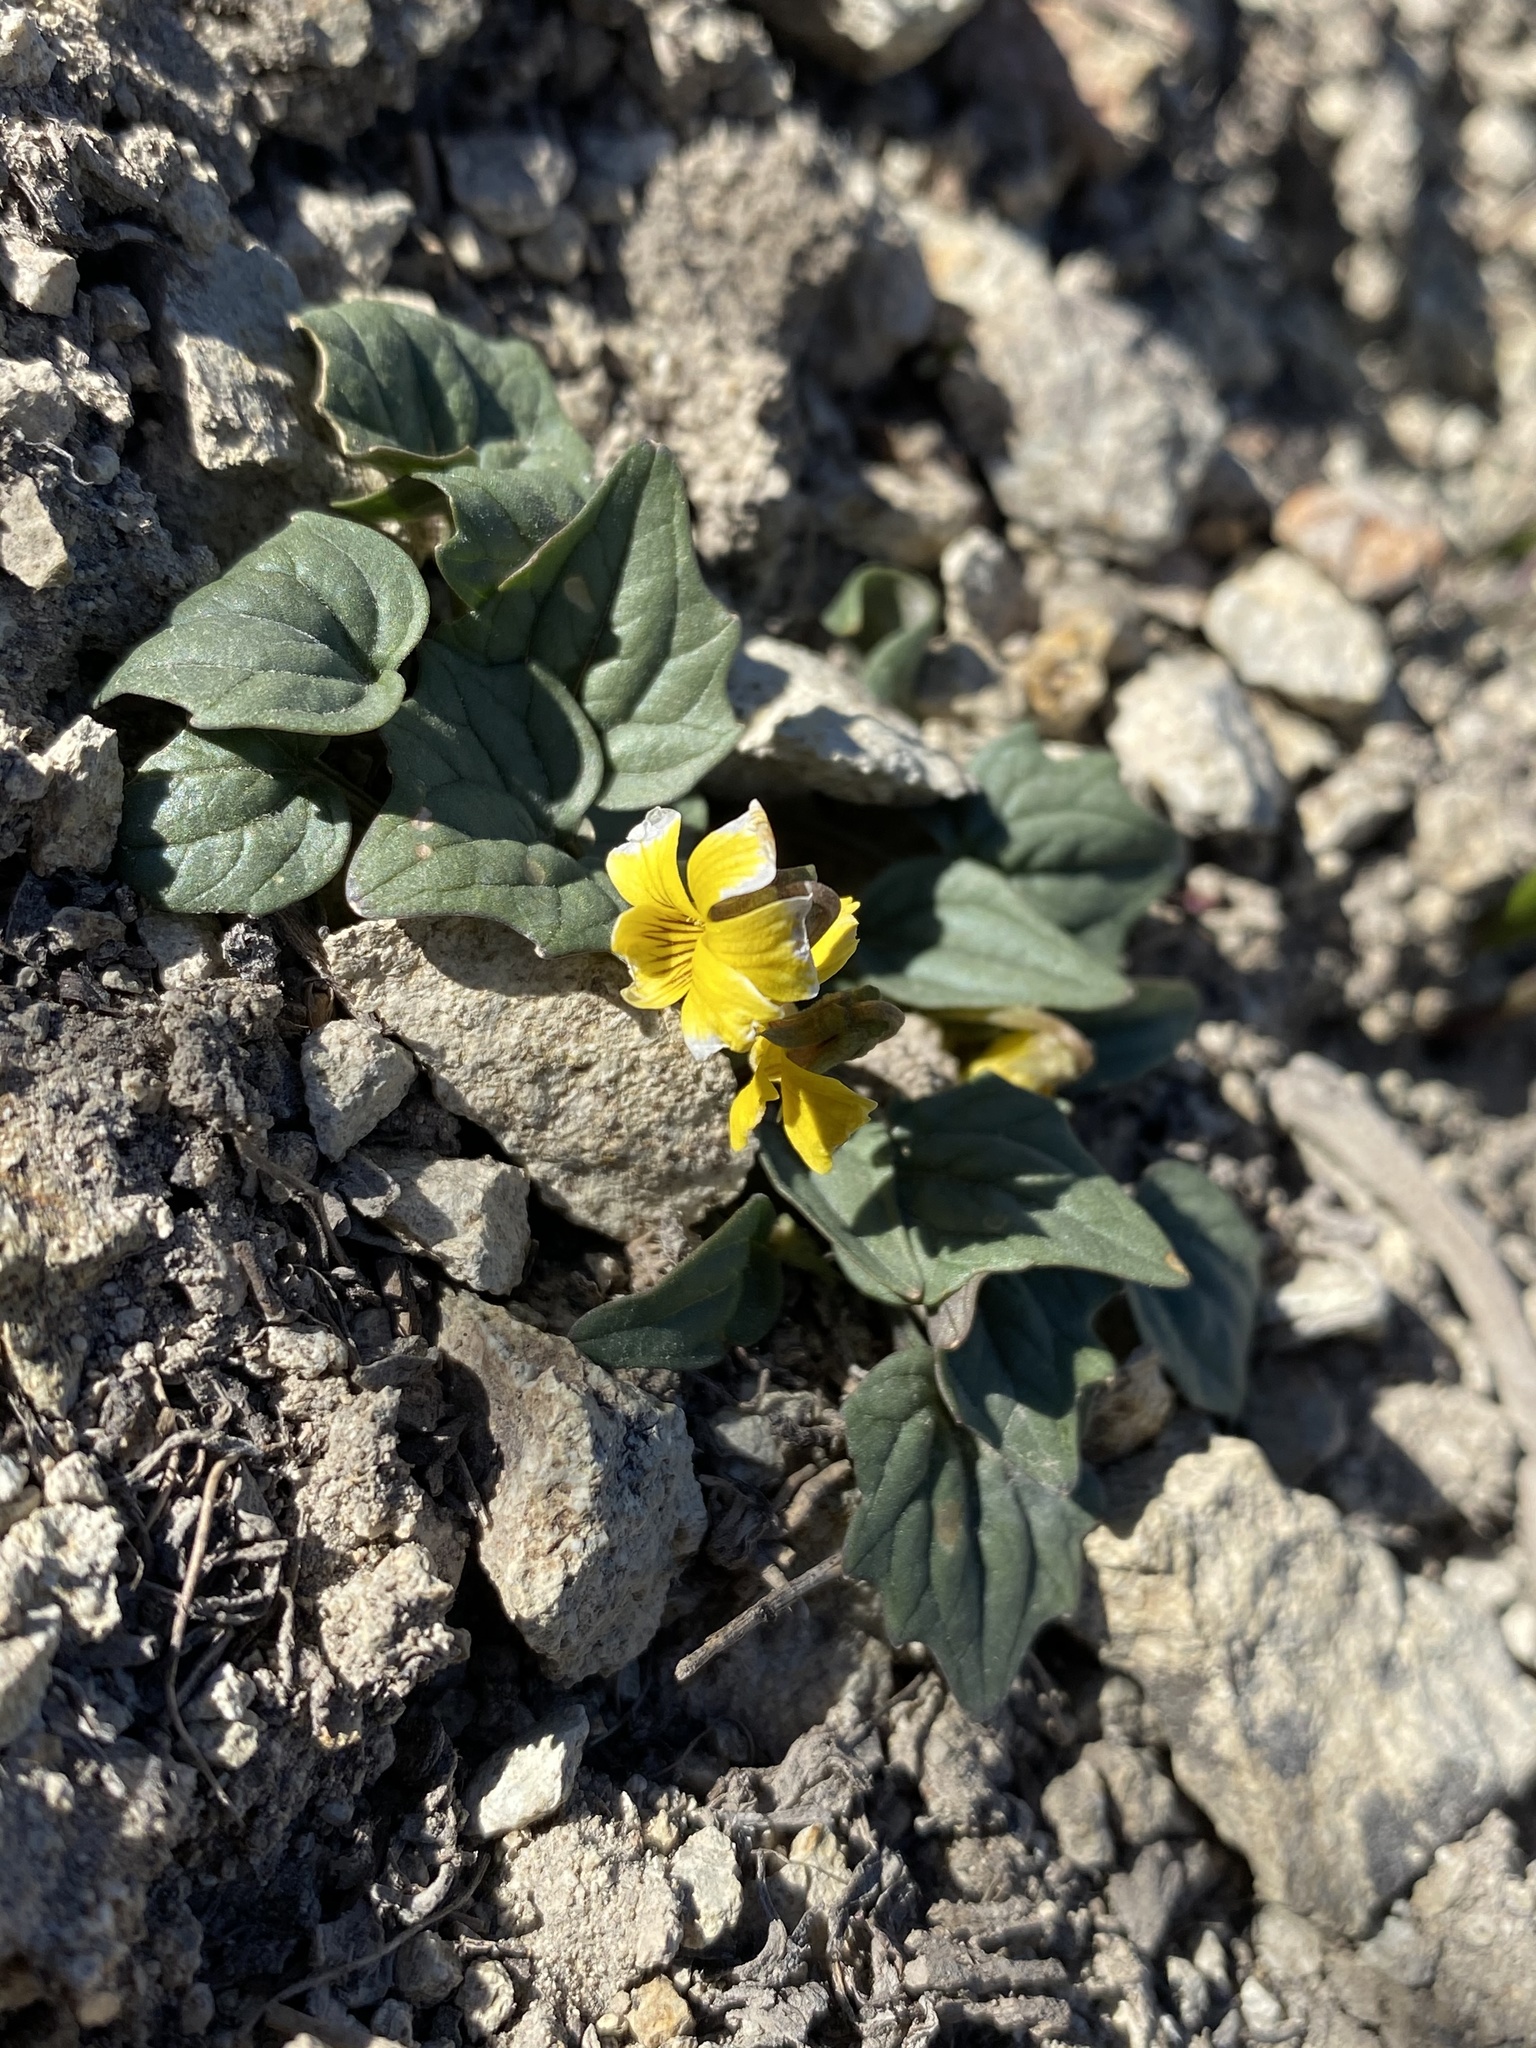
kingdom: Plantae
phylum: Tracheophyta
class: Magnoliopsida
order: Malpighiales
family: Violaceae
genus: Viola
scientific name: Viola purpurea
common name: Pine violet
